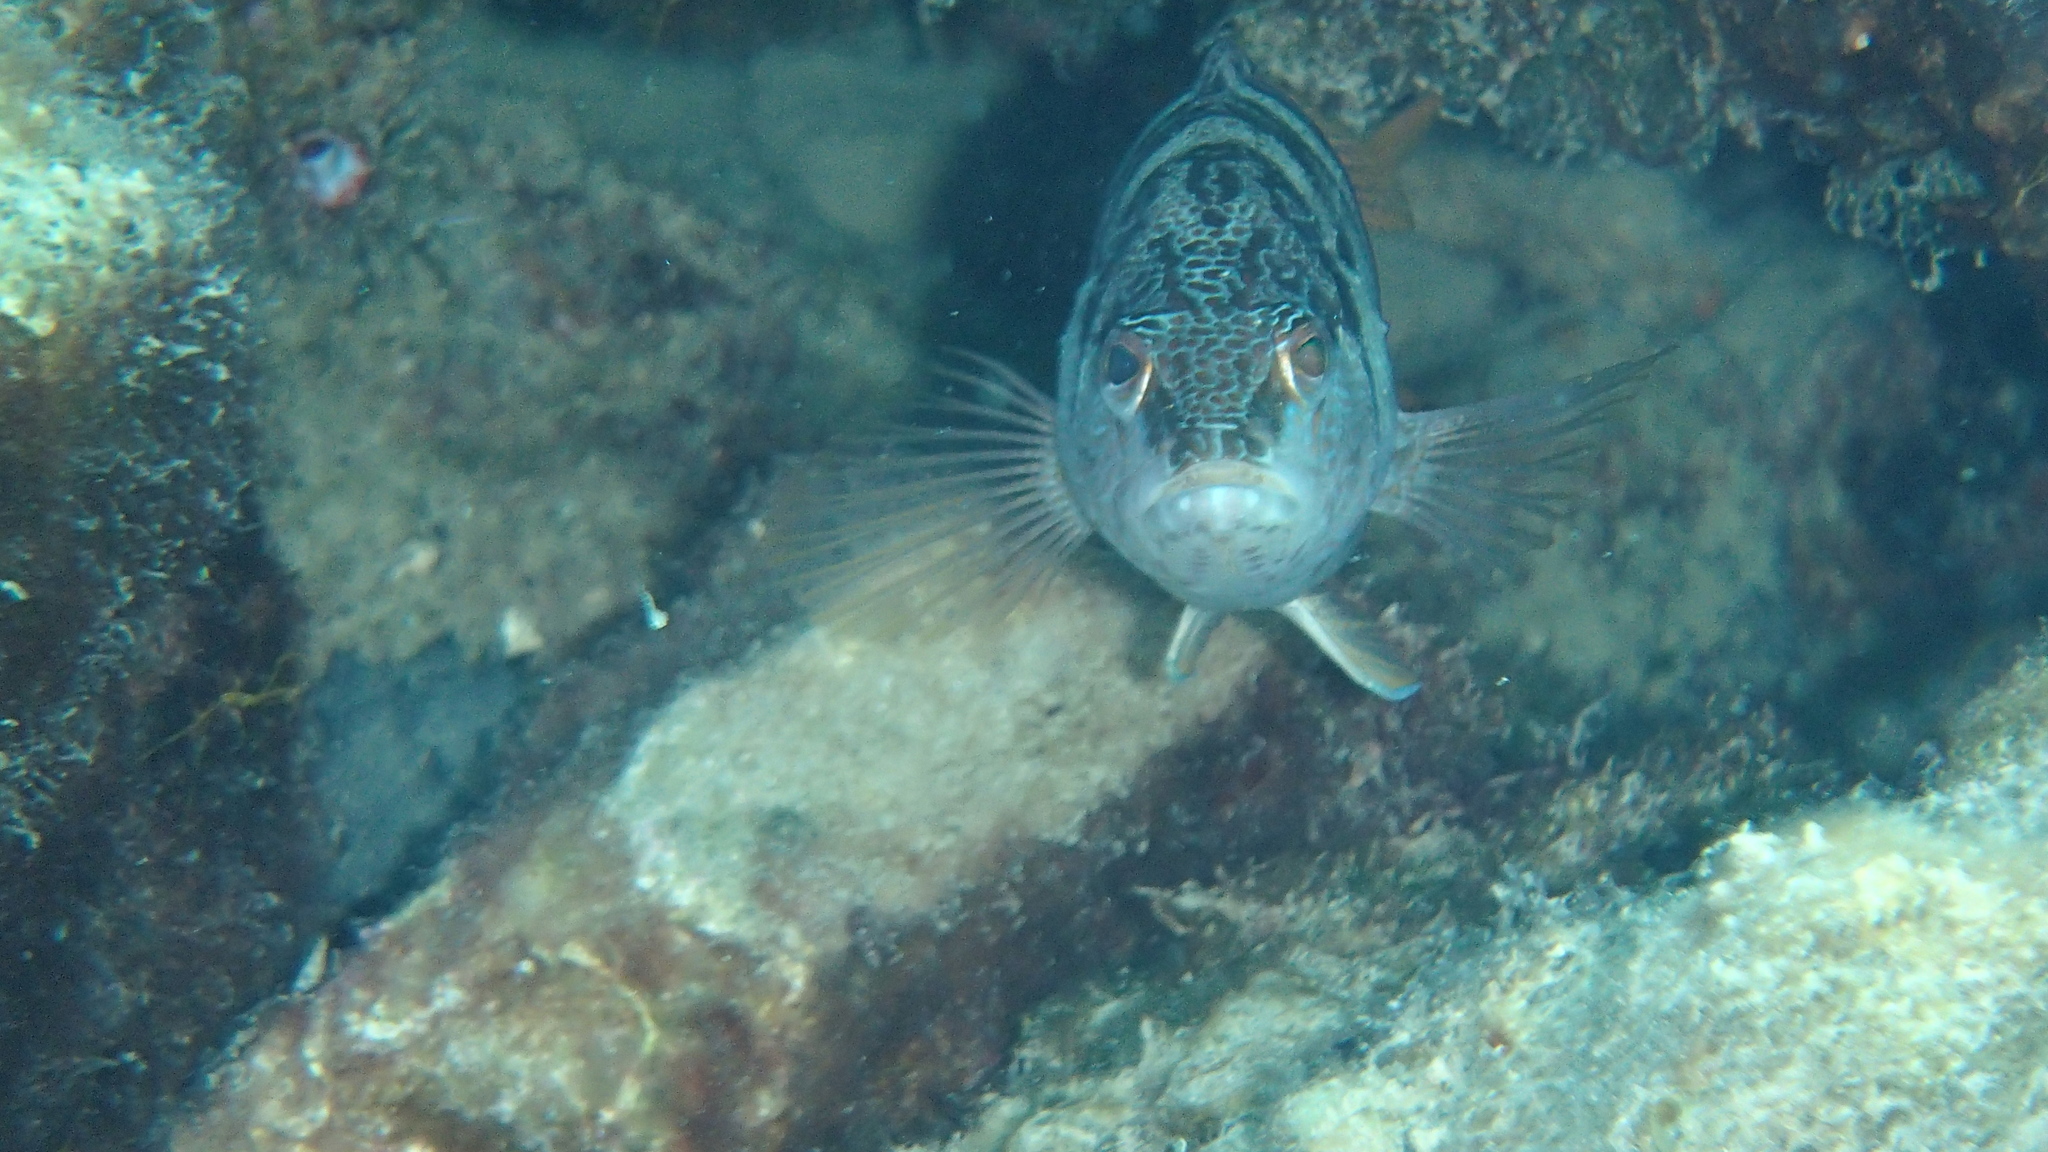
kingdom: Animalia
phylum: Chordata
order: Perciformes
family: Serranidae
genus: Serranus
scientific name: Serranus scriba
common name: Painted comber
